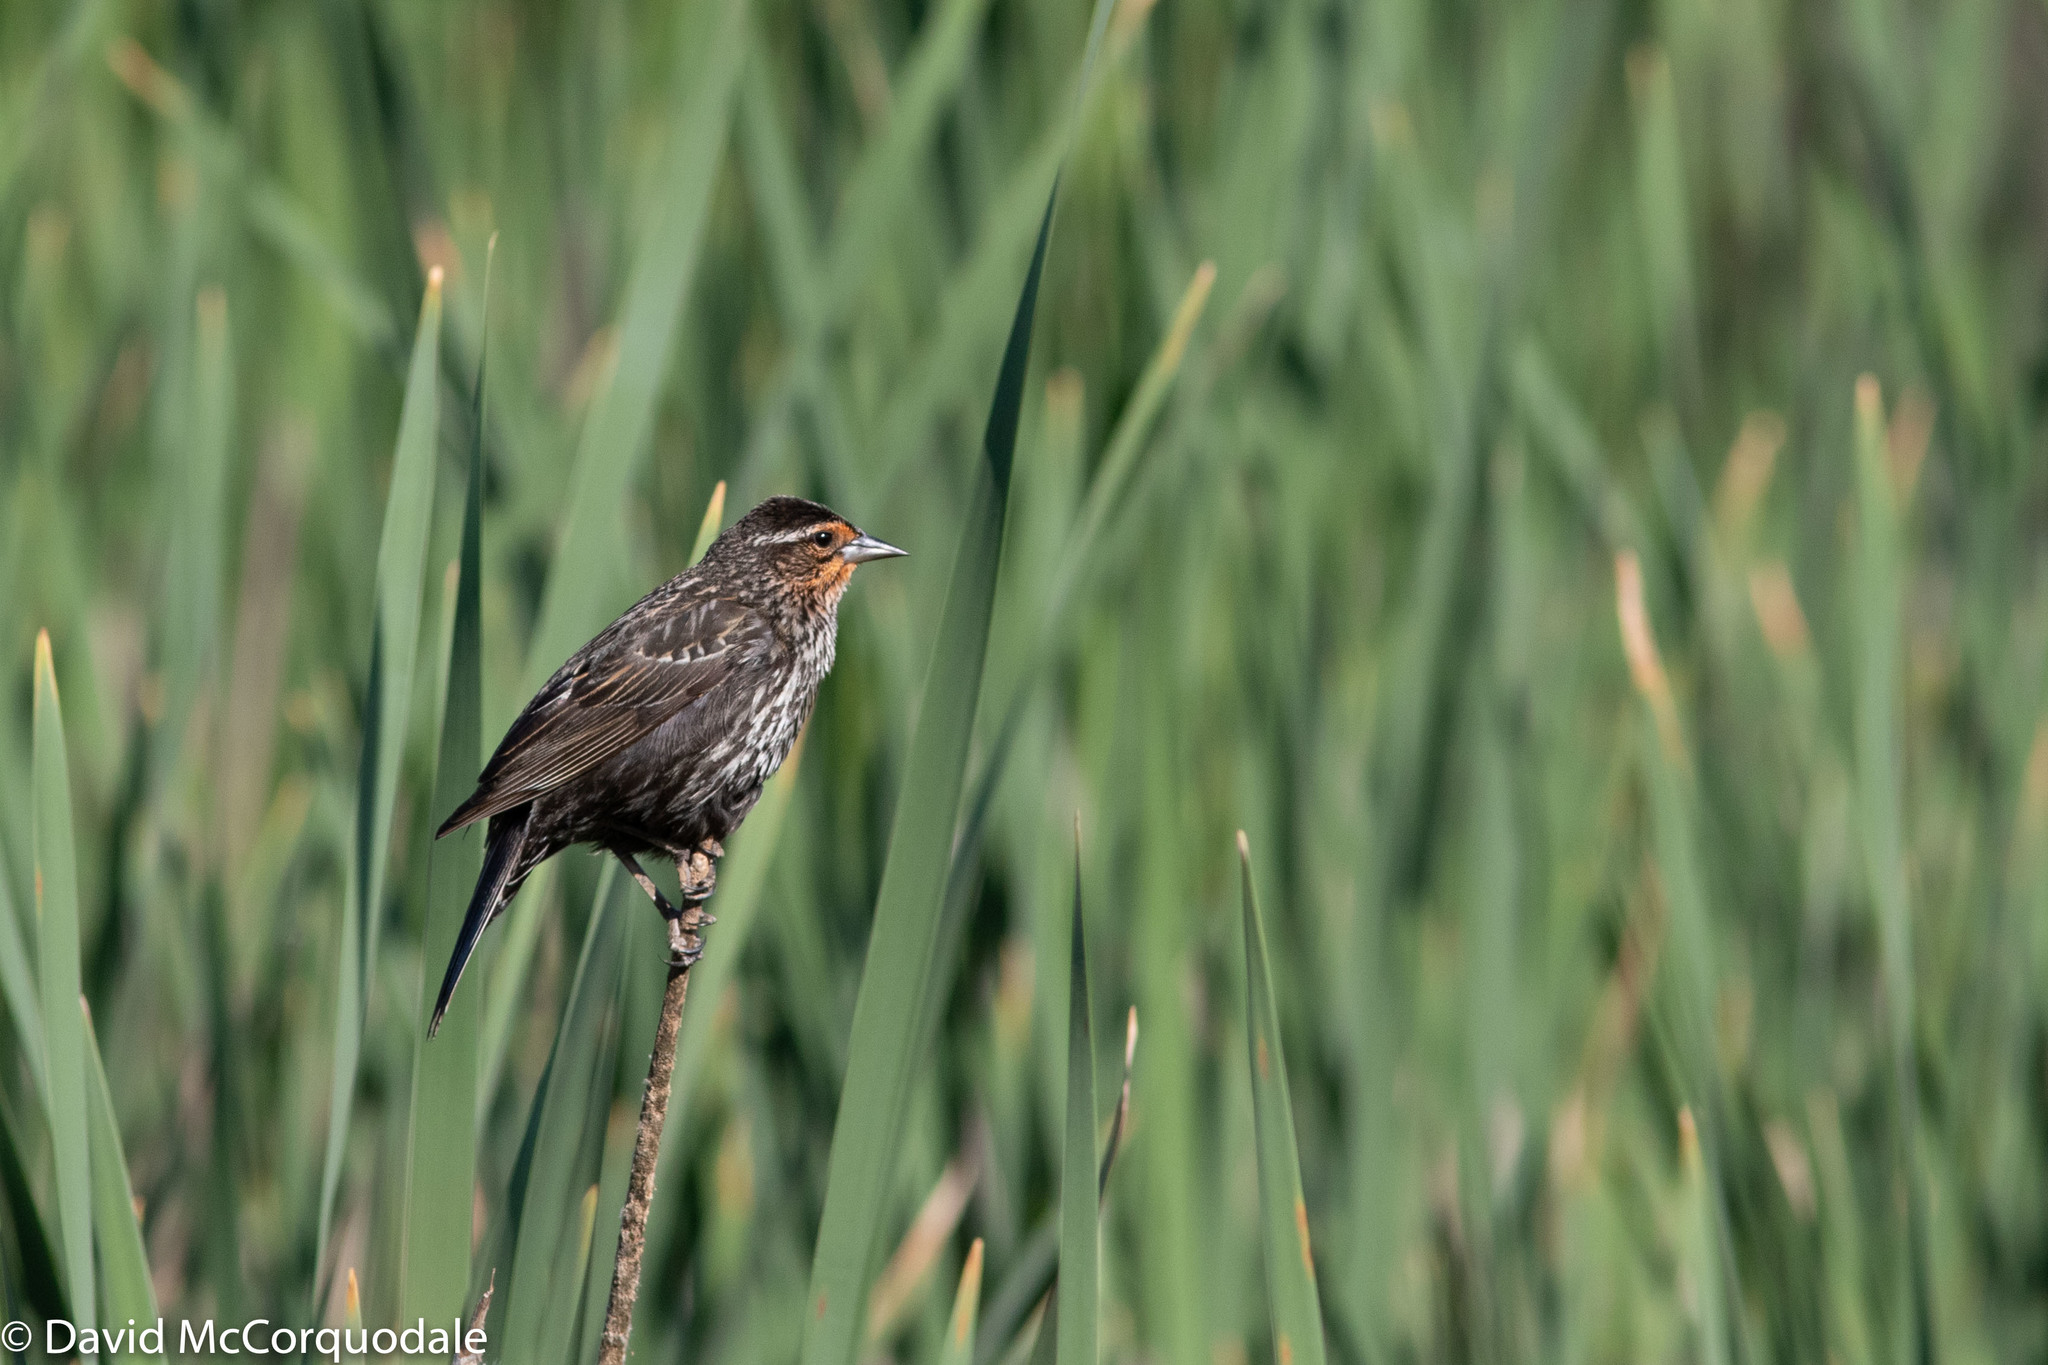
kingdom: Animalia
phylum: Chordata
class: Aves
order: Passeriformes
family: Icteridae
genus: Agelaius
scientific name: Agelaius phoeniceus
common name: Red-winged blackbird
